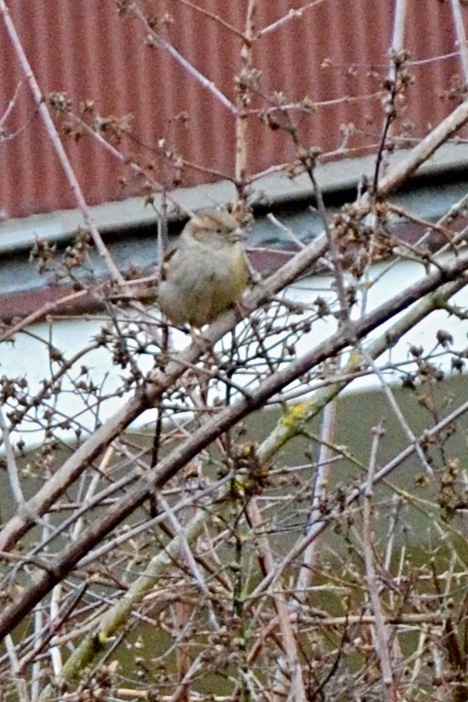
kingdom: Animalia
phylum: Chordata
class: Aves
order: Passeriformes
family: Passeridae
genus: Passer
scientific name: Passer domesticus
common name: House sparrow
